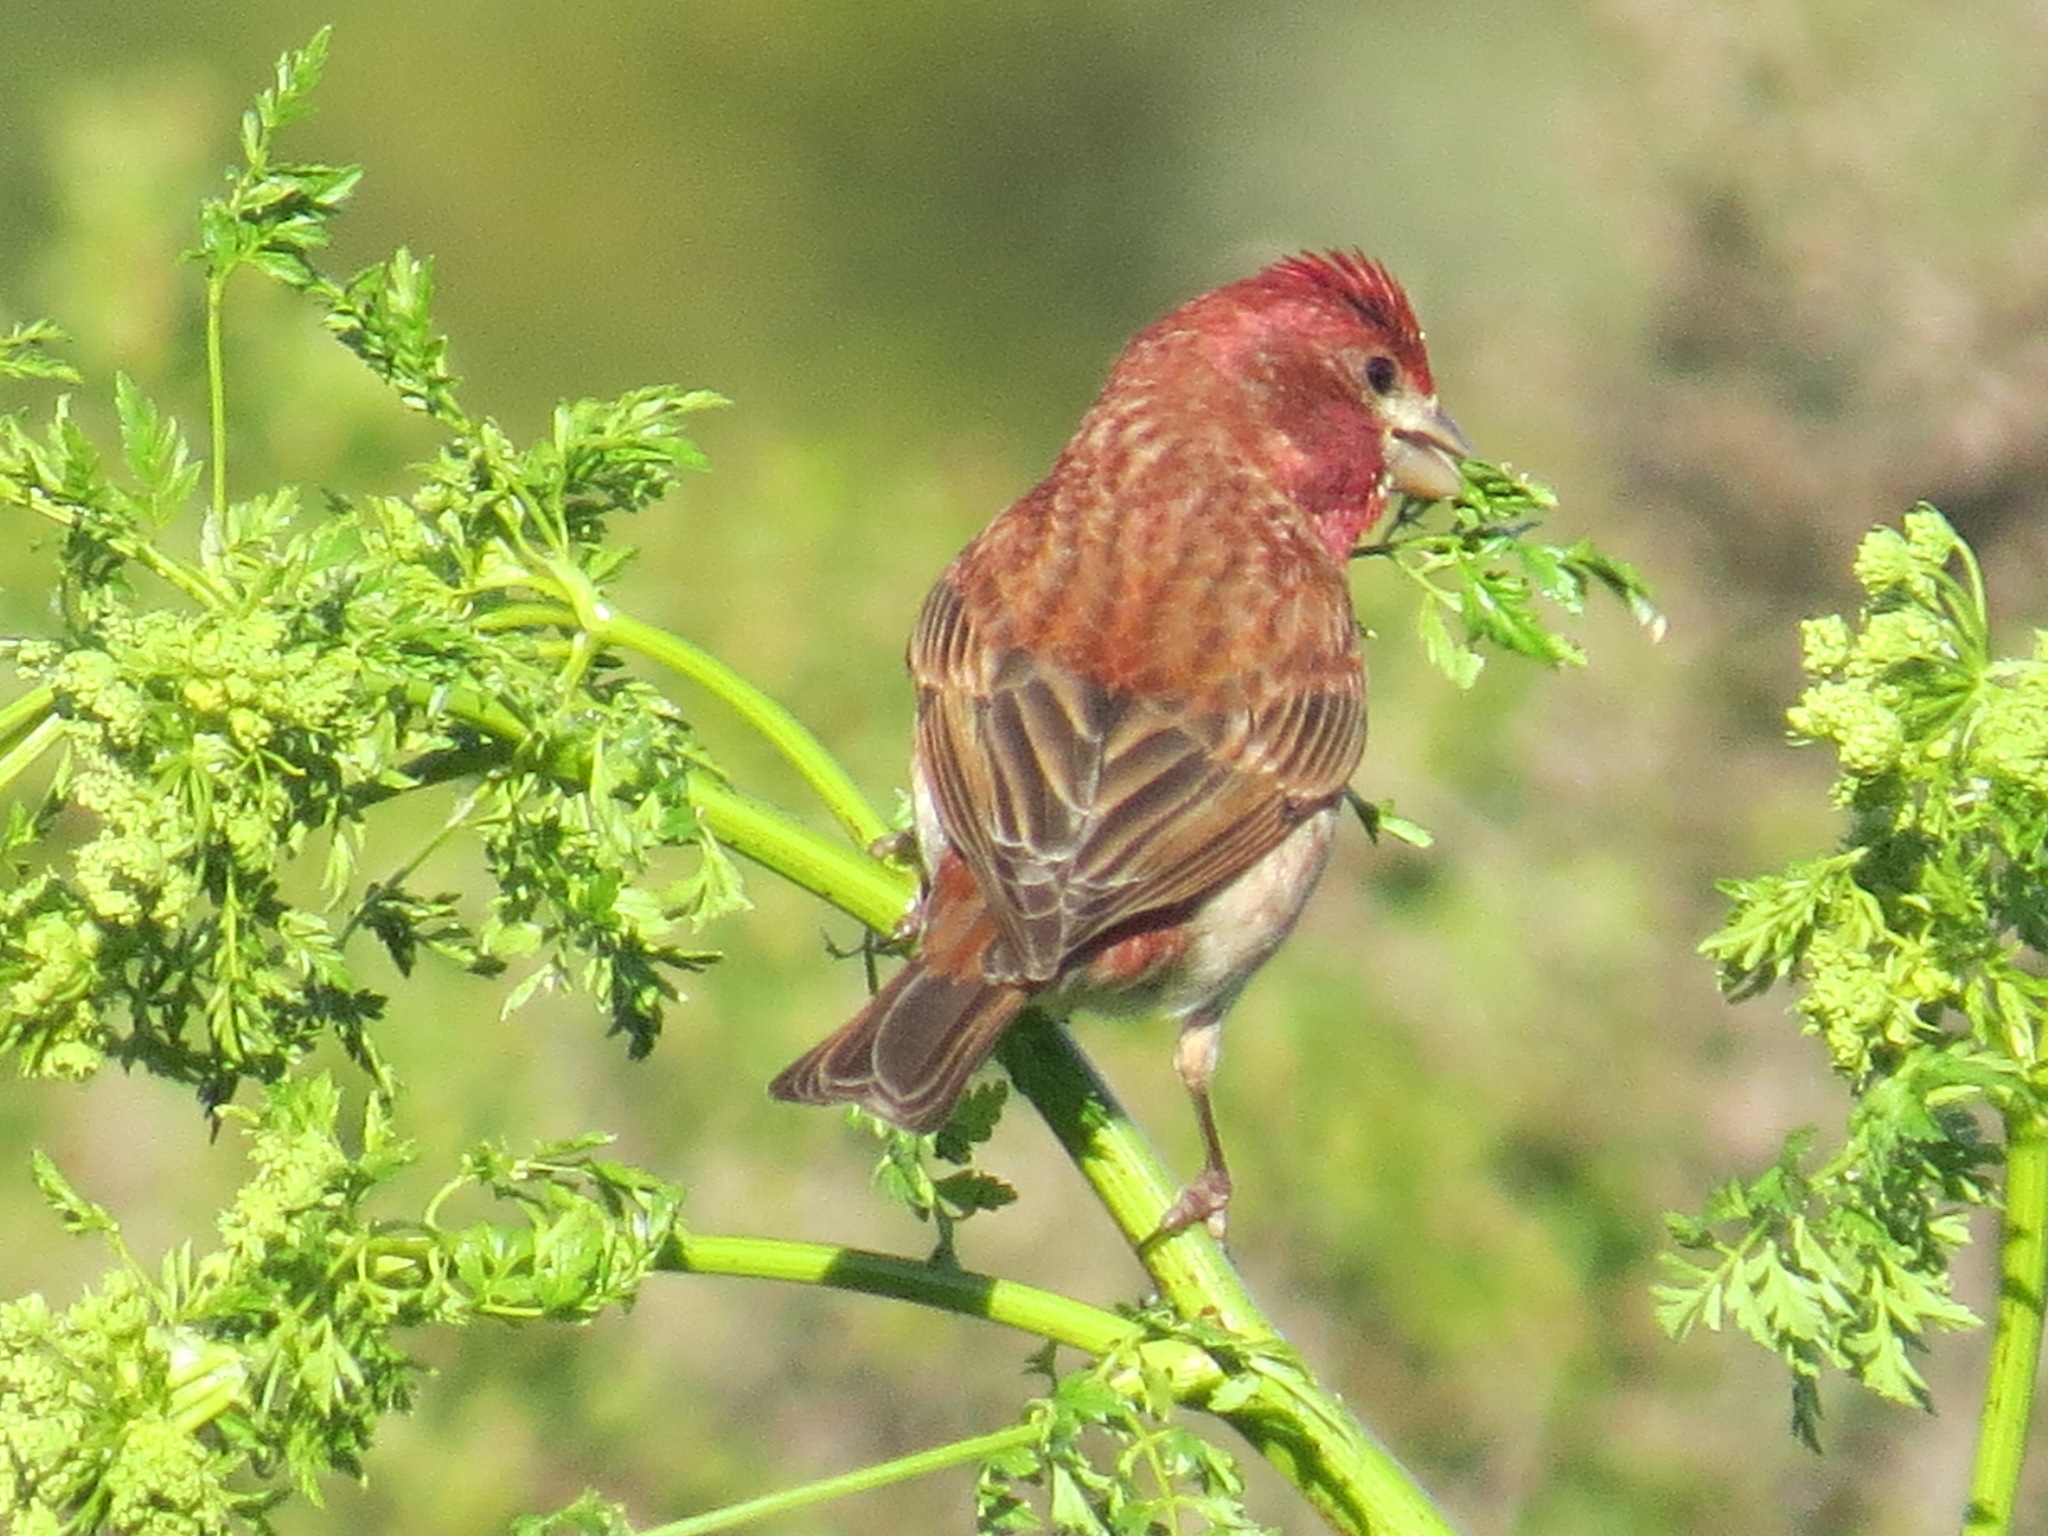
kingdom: Animalia
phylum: Chordata
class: Aves
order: Passeriformes
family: Fringillidae
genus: Haemorhous
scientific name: Haemorhous purpureus
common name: Purple finch
